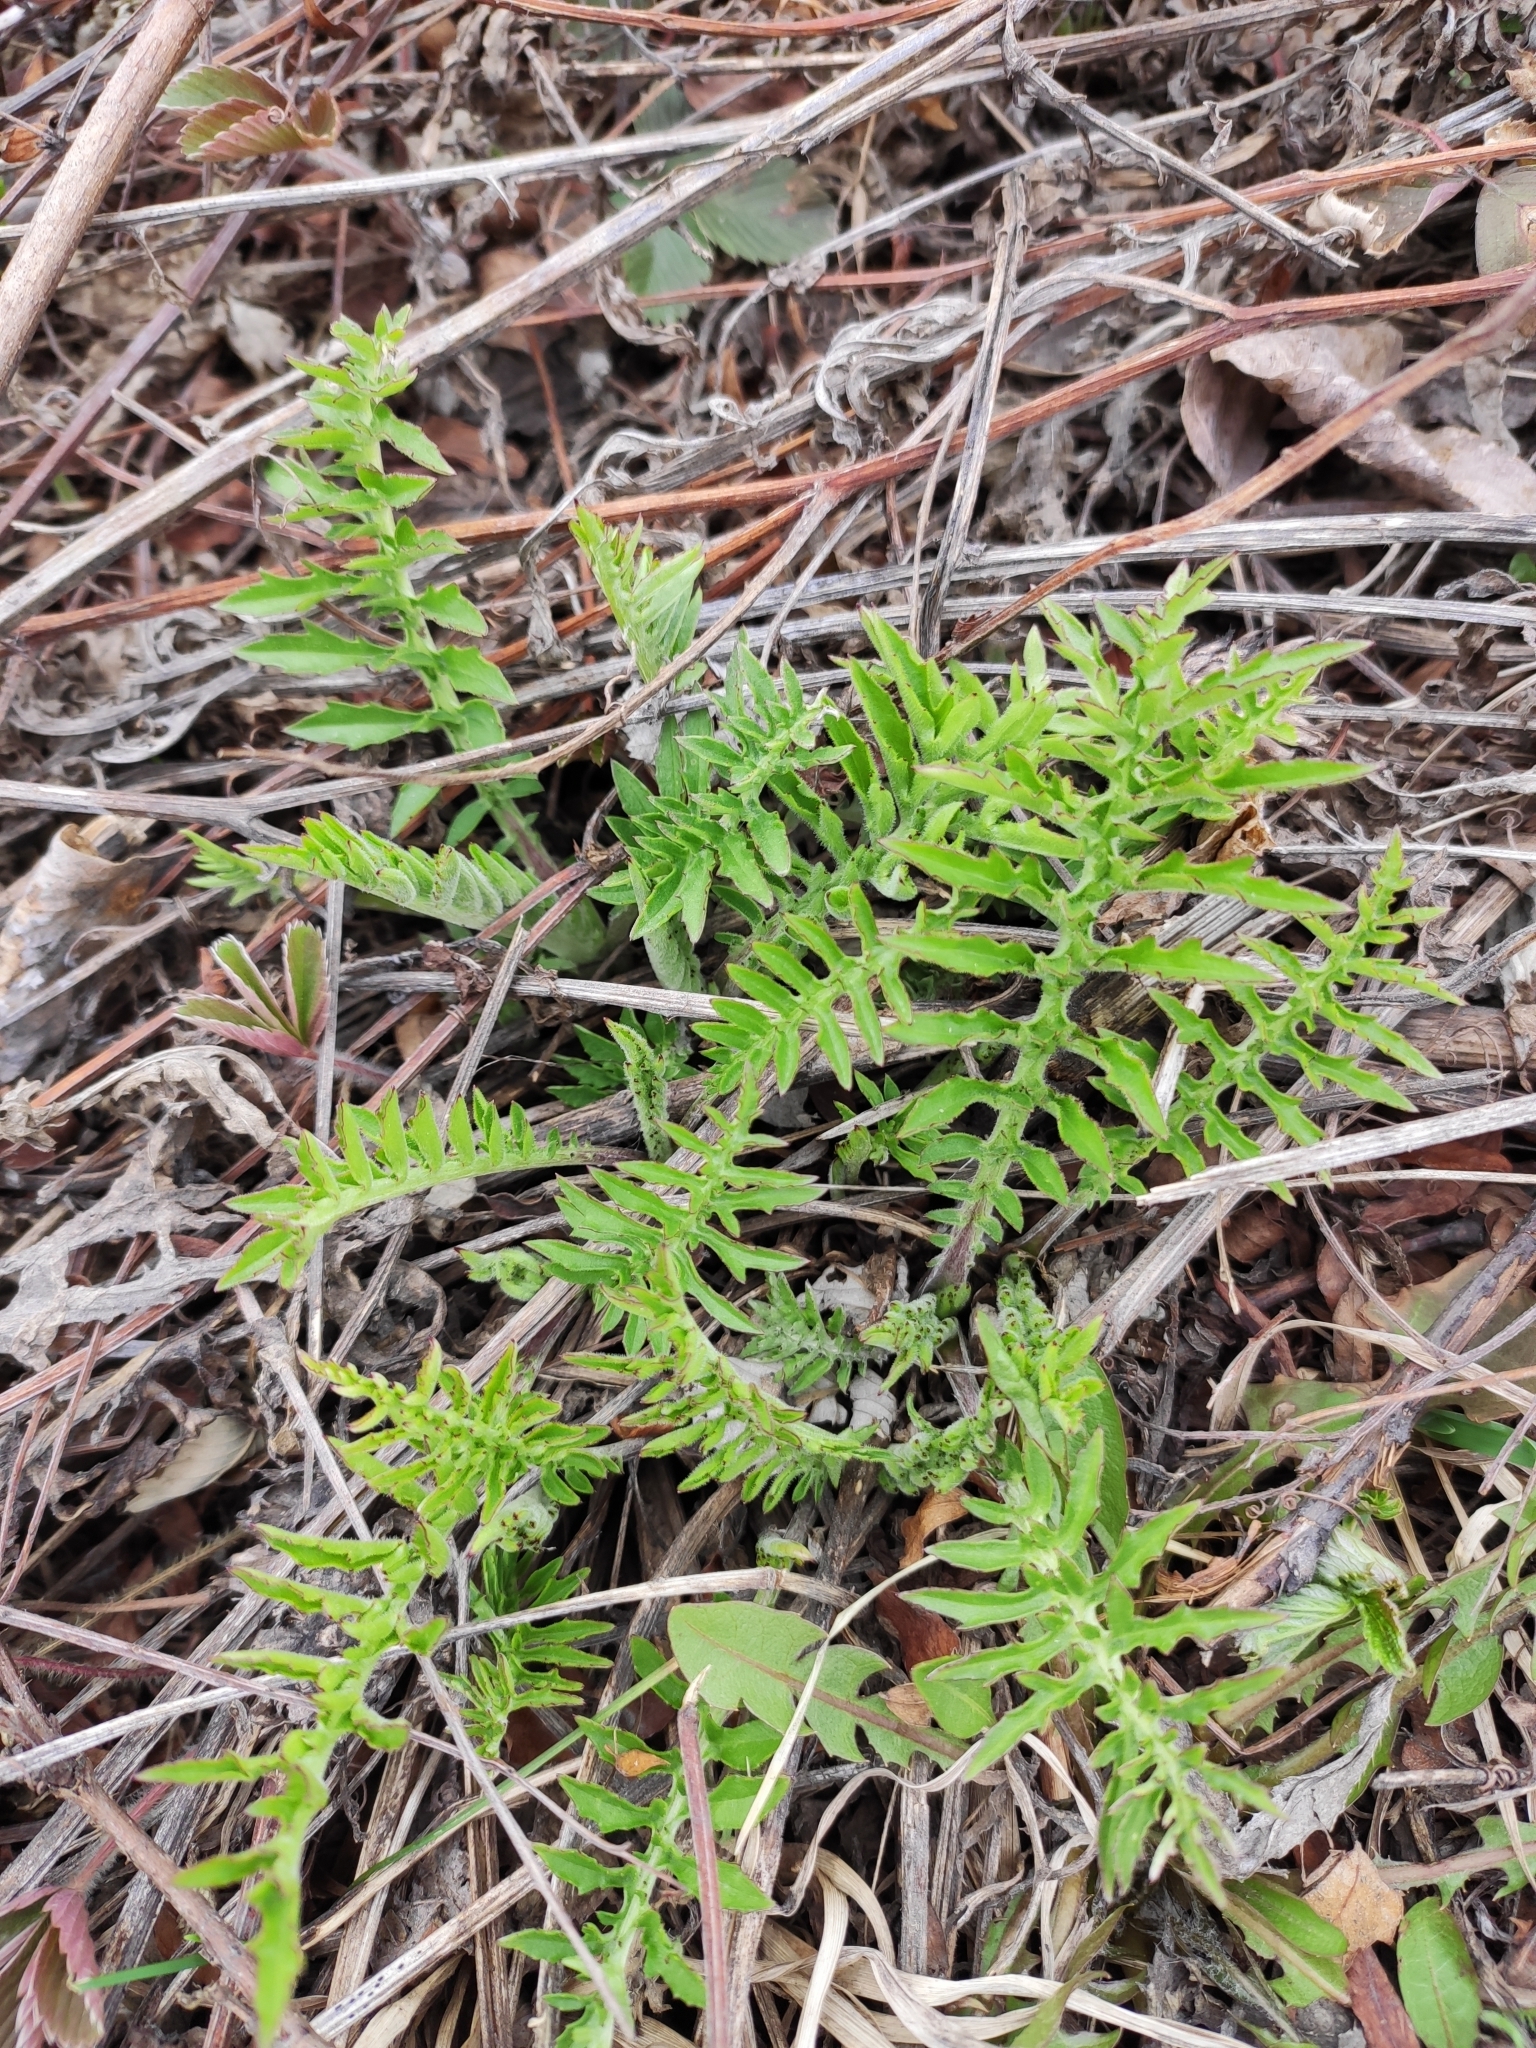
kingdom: Plantae
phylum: Tracheophyta
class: Magnoliopsida
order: Asterales
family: Asteraceae
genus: Centaurea
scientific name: Centaurea scabiosa
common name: Greater knapweed
